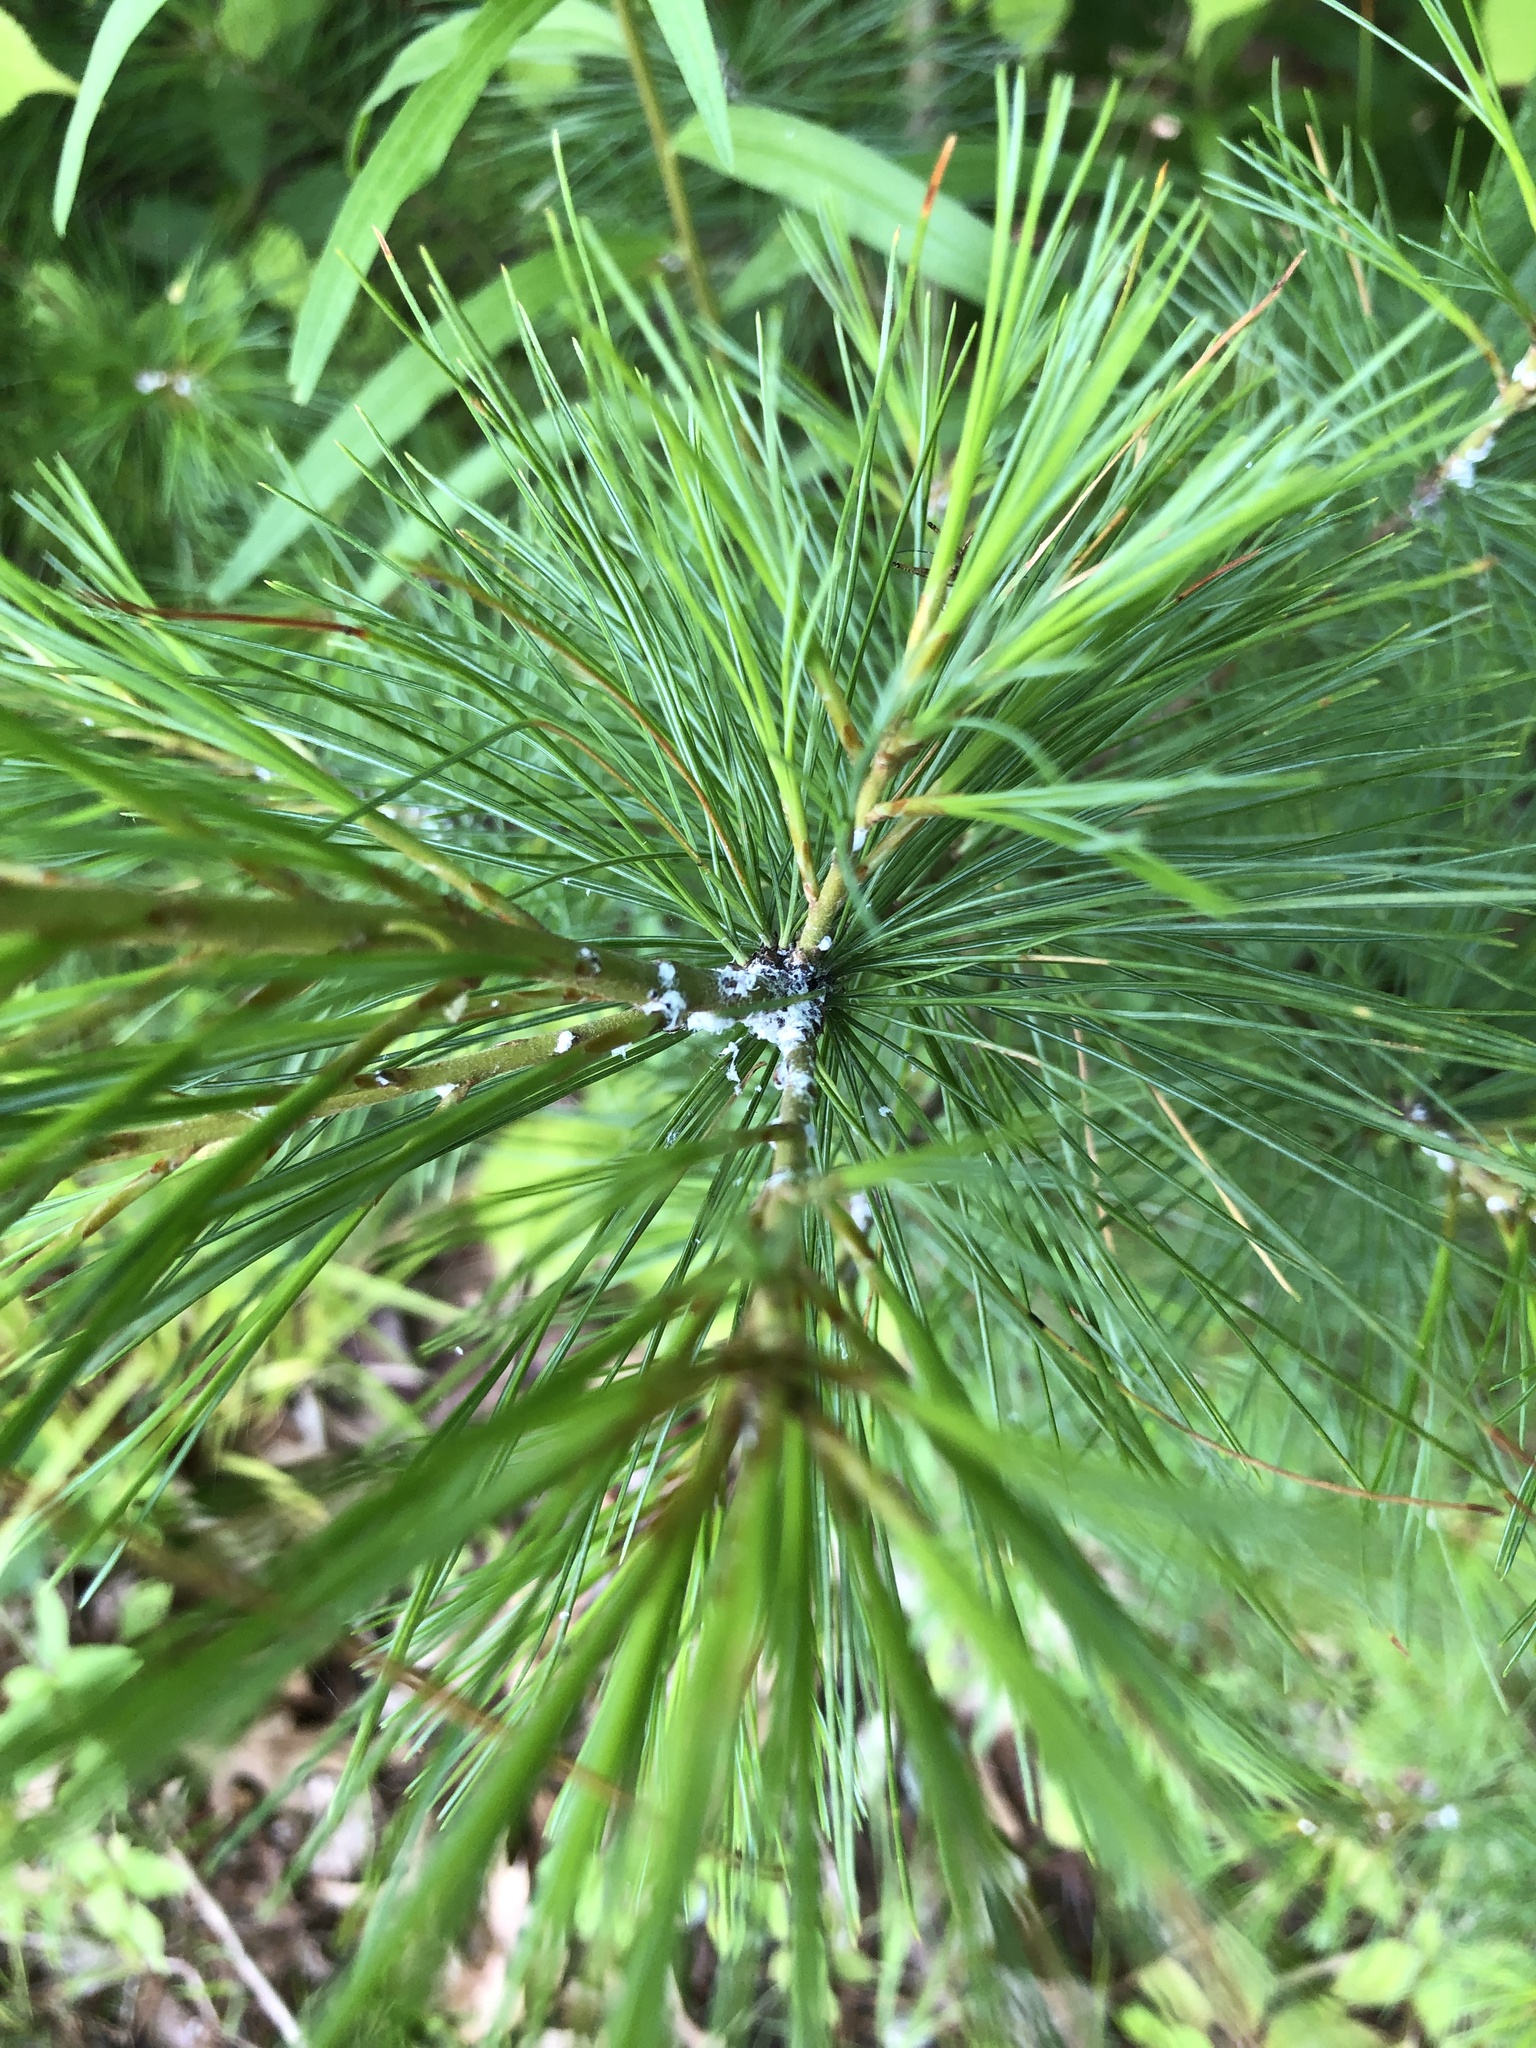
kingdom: Plantae
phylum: Tracheophyta
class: Pinopsida
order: Pinales
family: Pinaceae
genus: Pinus
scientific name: Pinus strobus
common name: Weymouth pine
